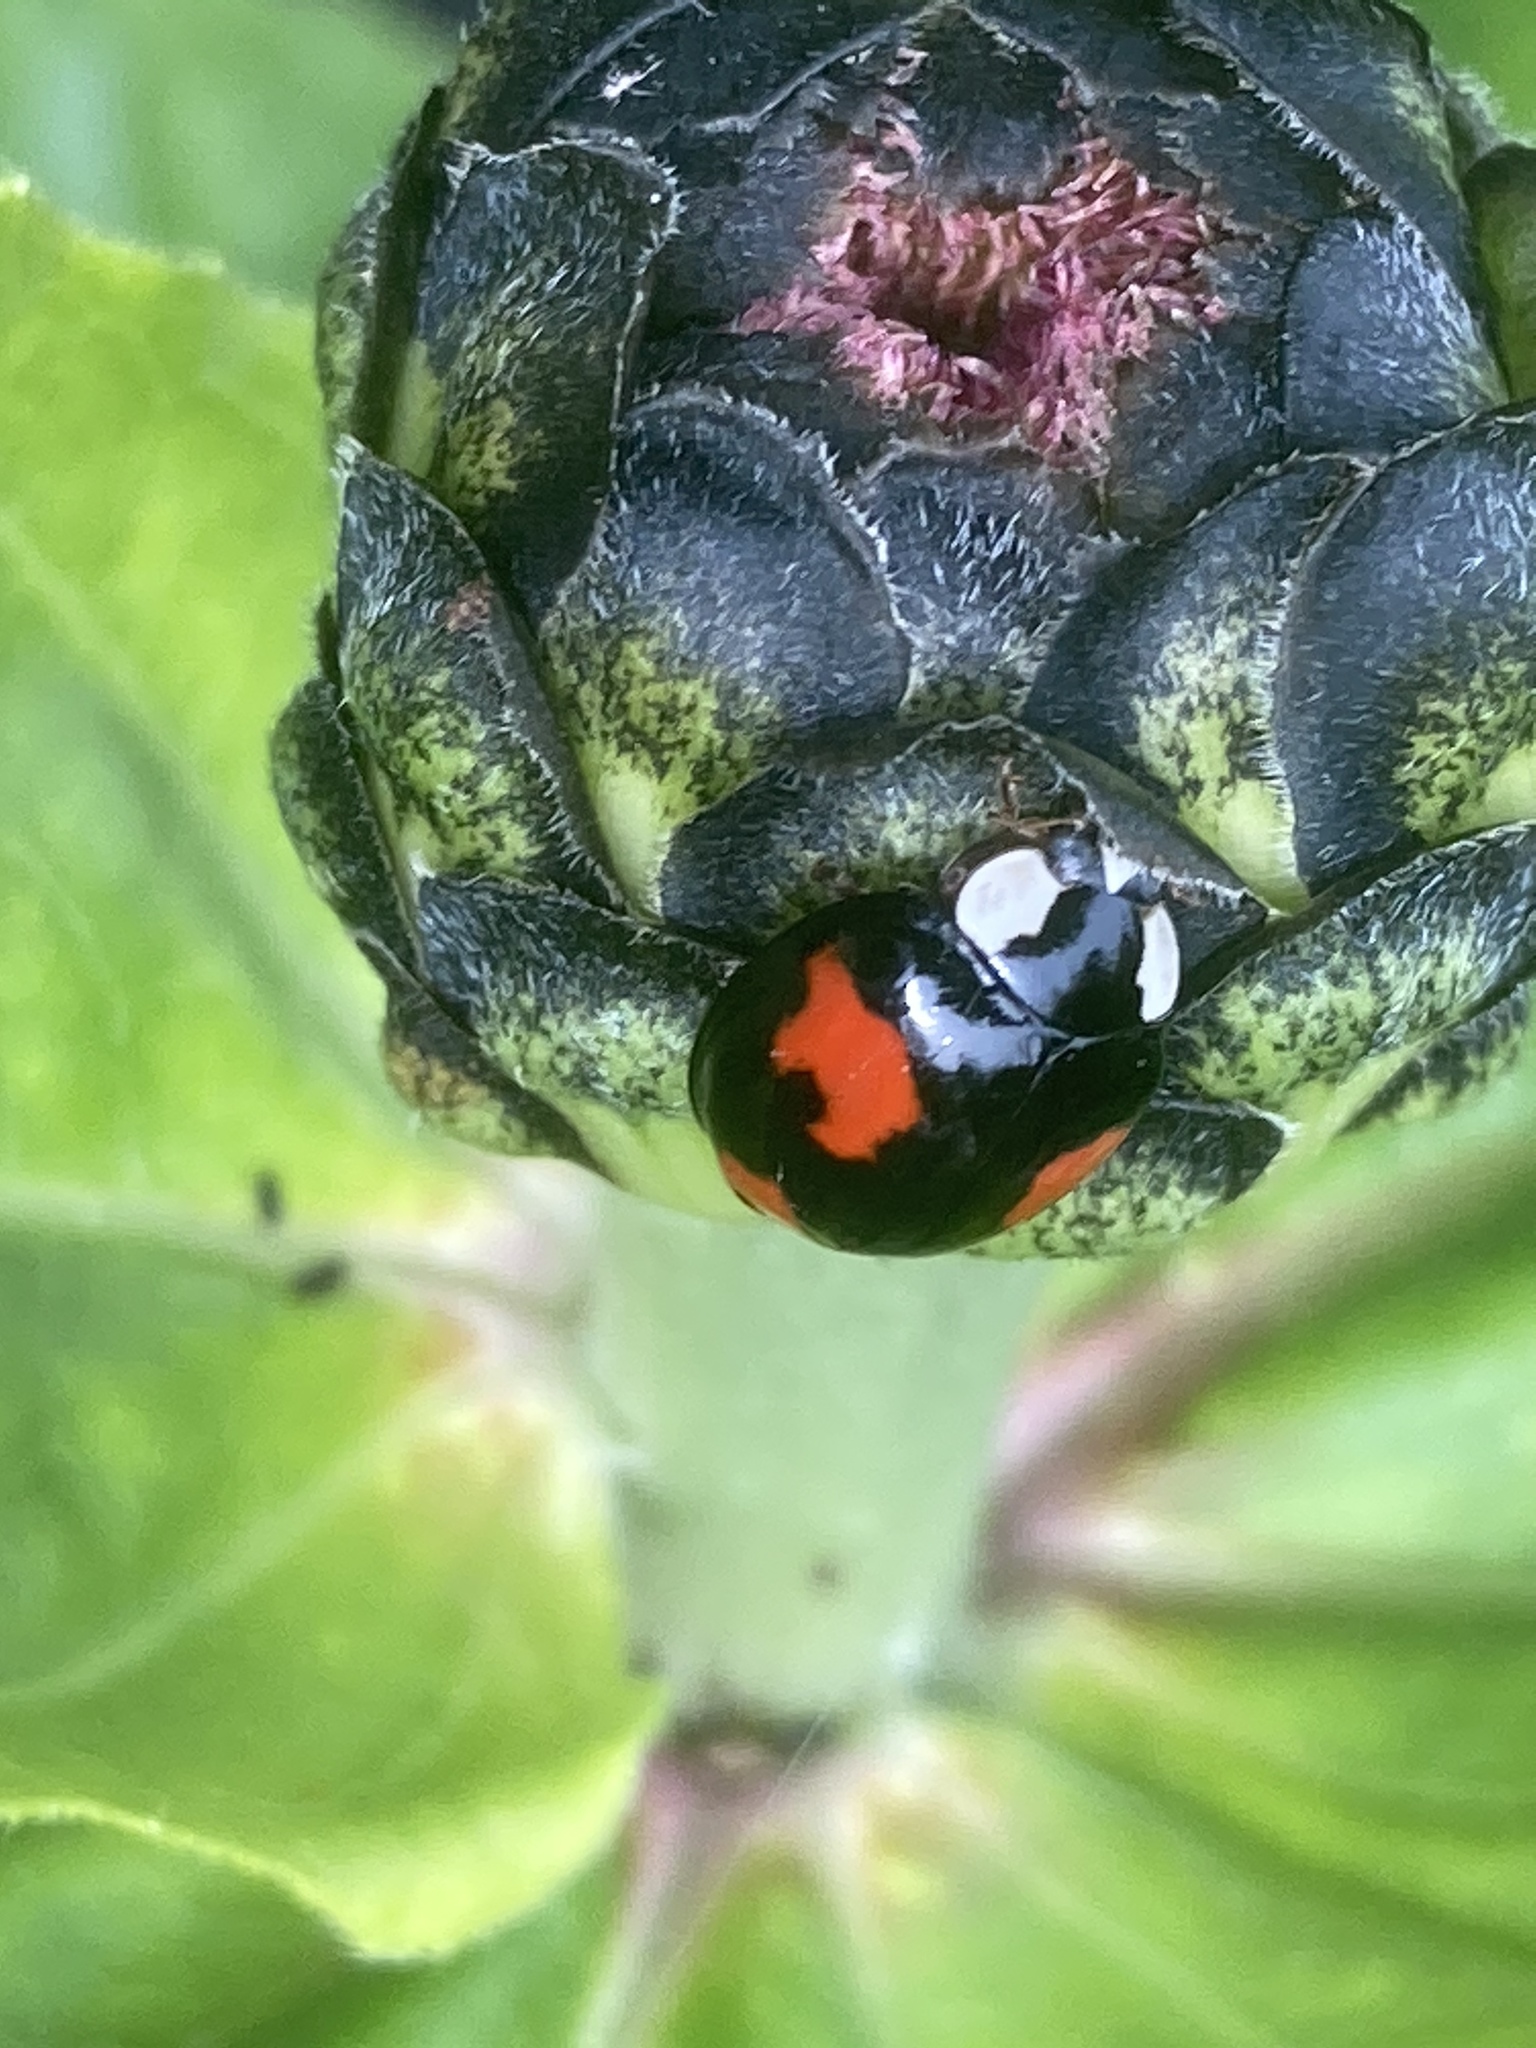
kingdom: Animalia
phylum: Arthropoda
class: Insecta
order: Coleoptera
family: Coccinellidae
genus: Harmonia
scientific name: Harmonia axyridis
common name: Harlequin ladybird
